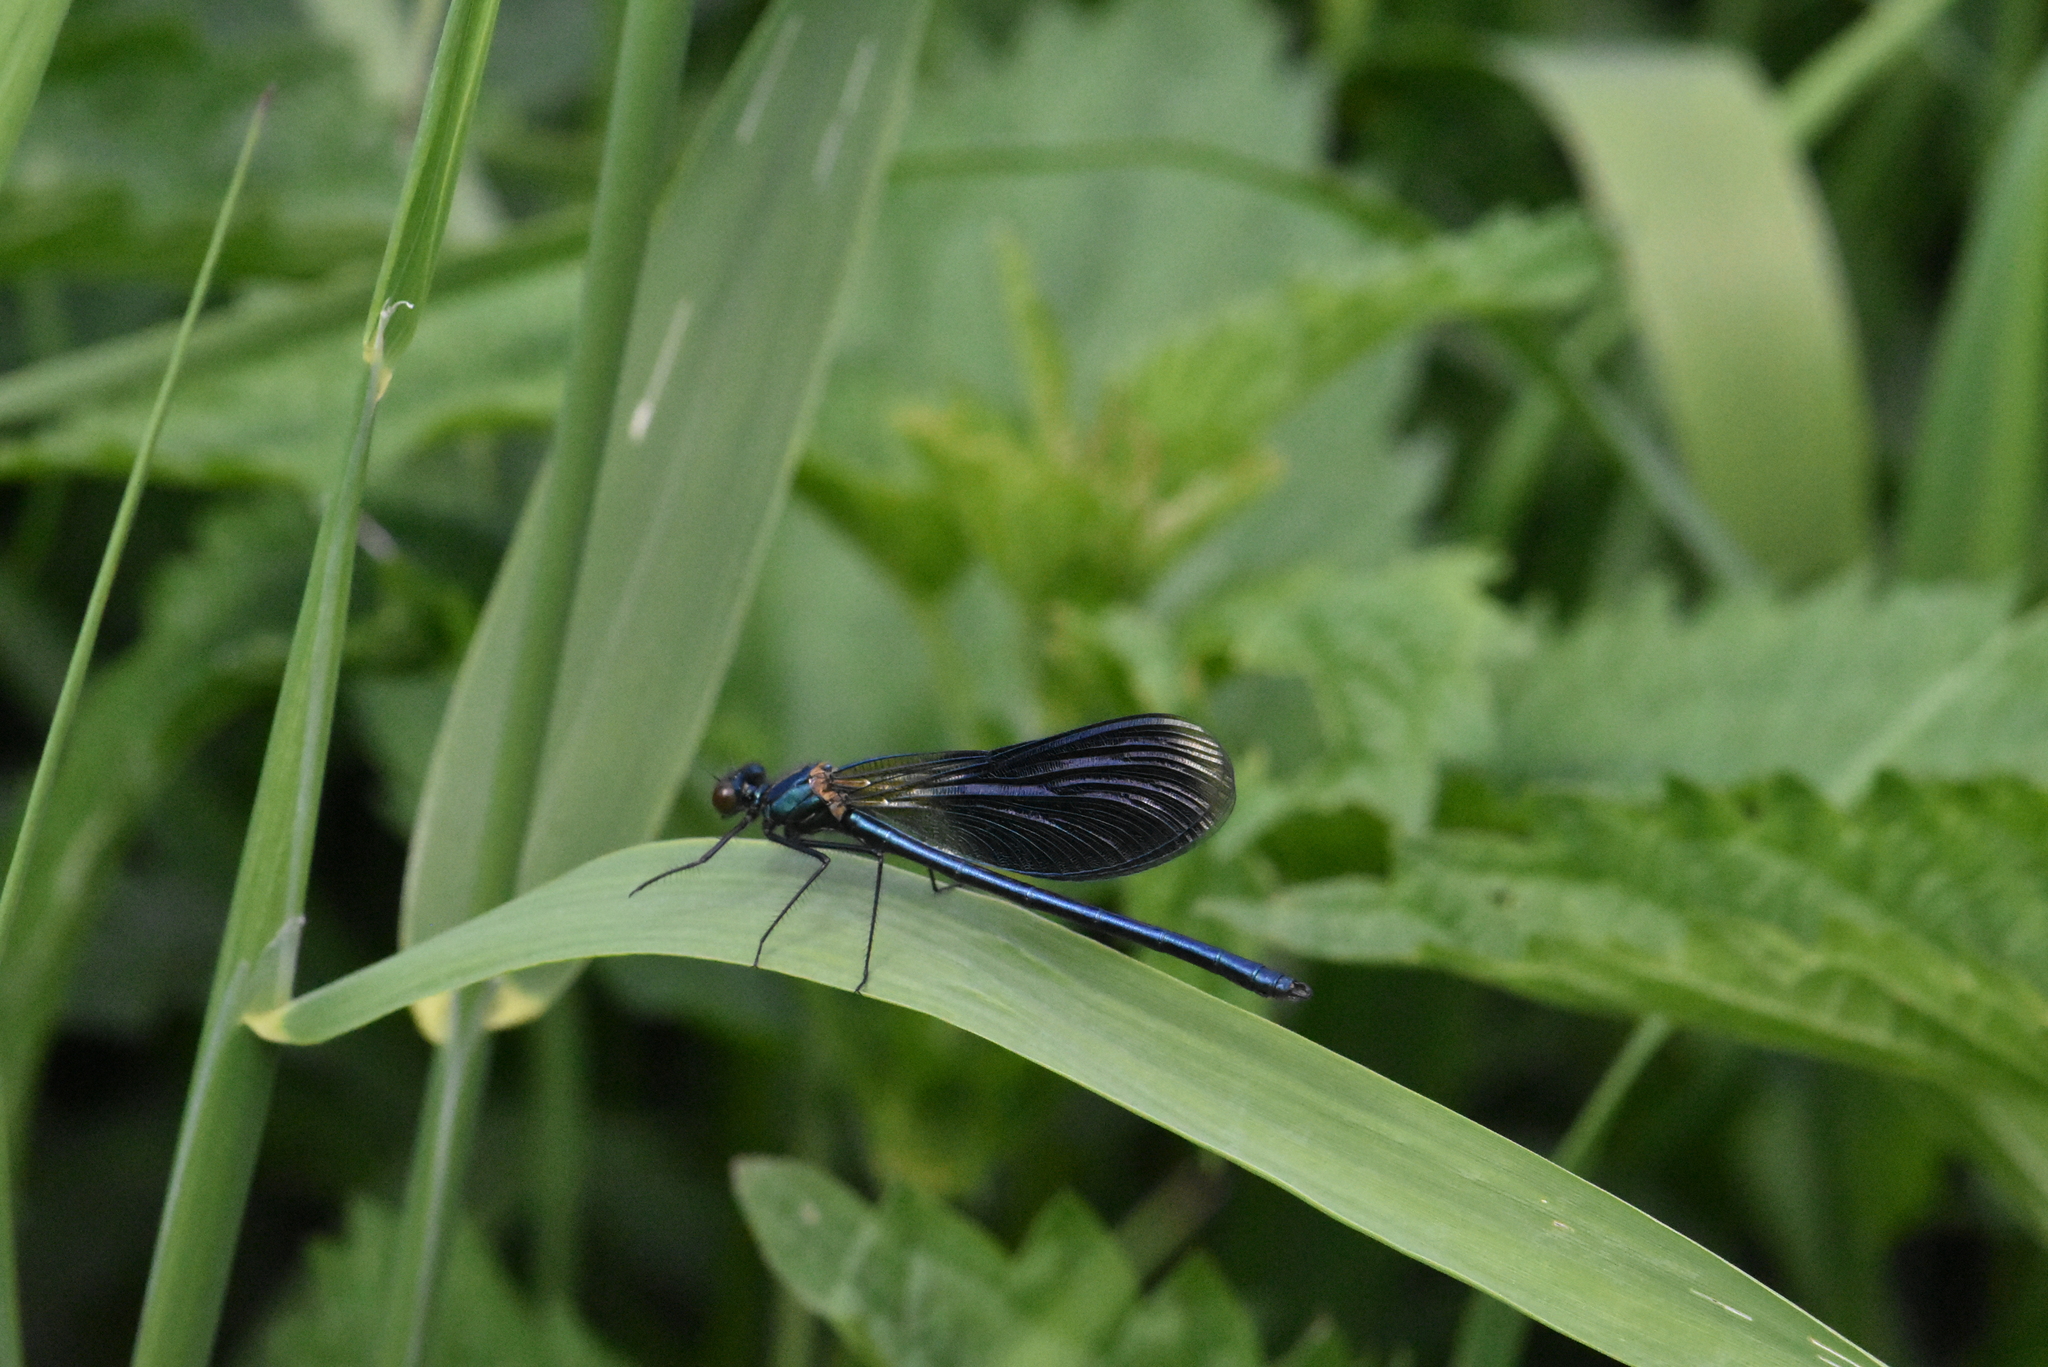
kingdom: Animalia
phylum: Arthropoda
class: Insecta
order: Odonata
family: Calopterygidae
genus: Calopteryx
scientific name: Calopteryx splendens
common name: Banded demoiselle
